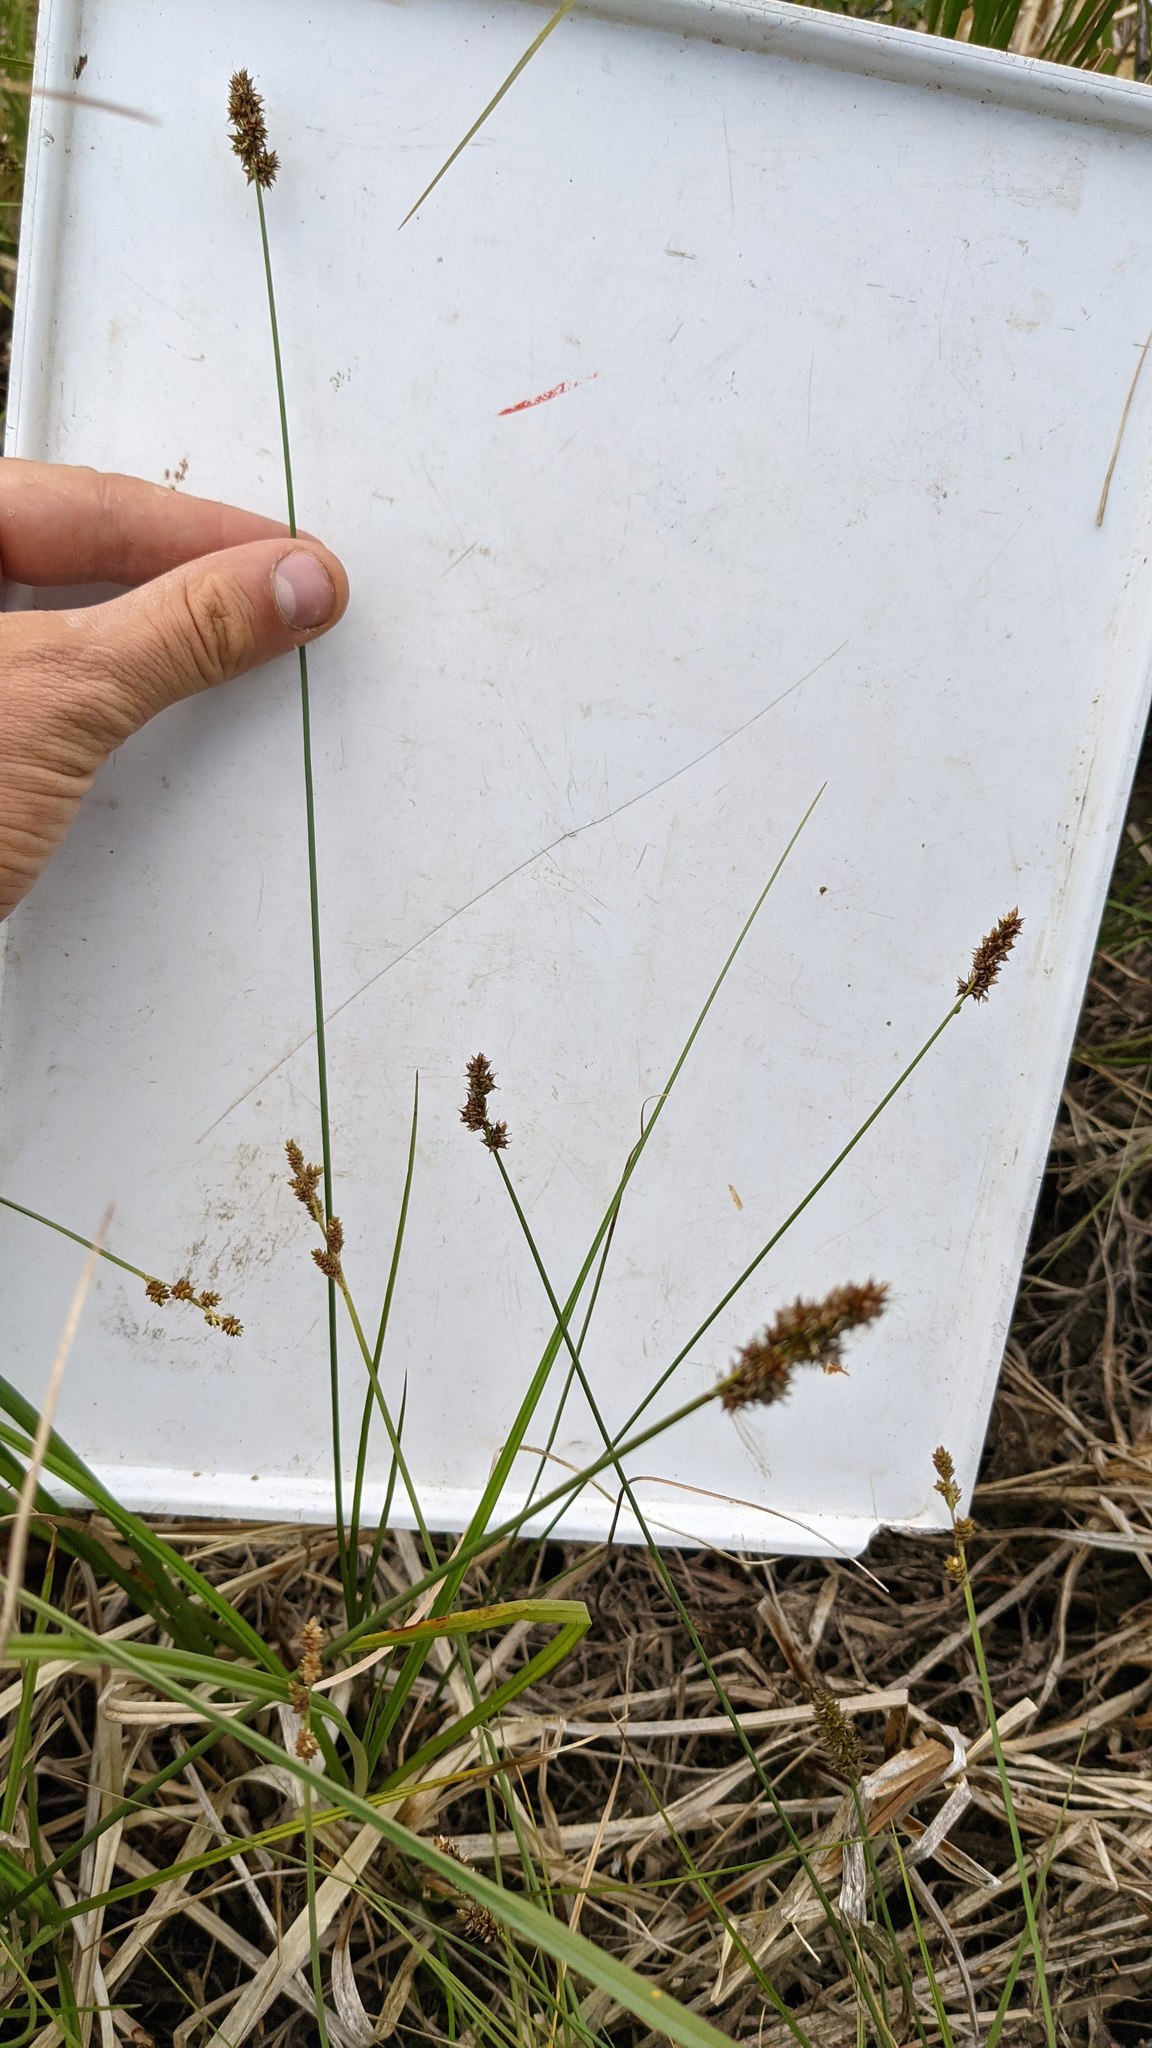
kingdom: Plantae
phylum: Tracheophyta
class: Liliopsida
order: Poales
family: Cyperaceae
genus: Carex
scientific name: Carex diandra
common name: Lesser tussock-sedge
